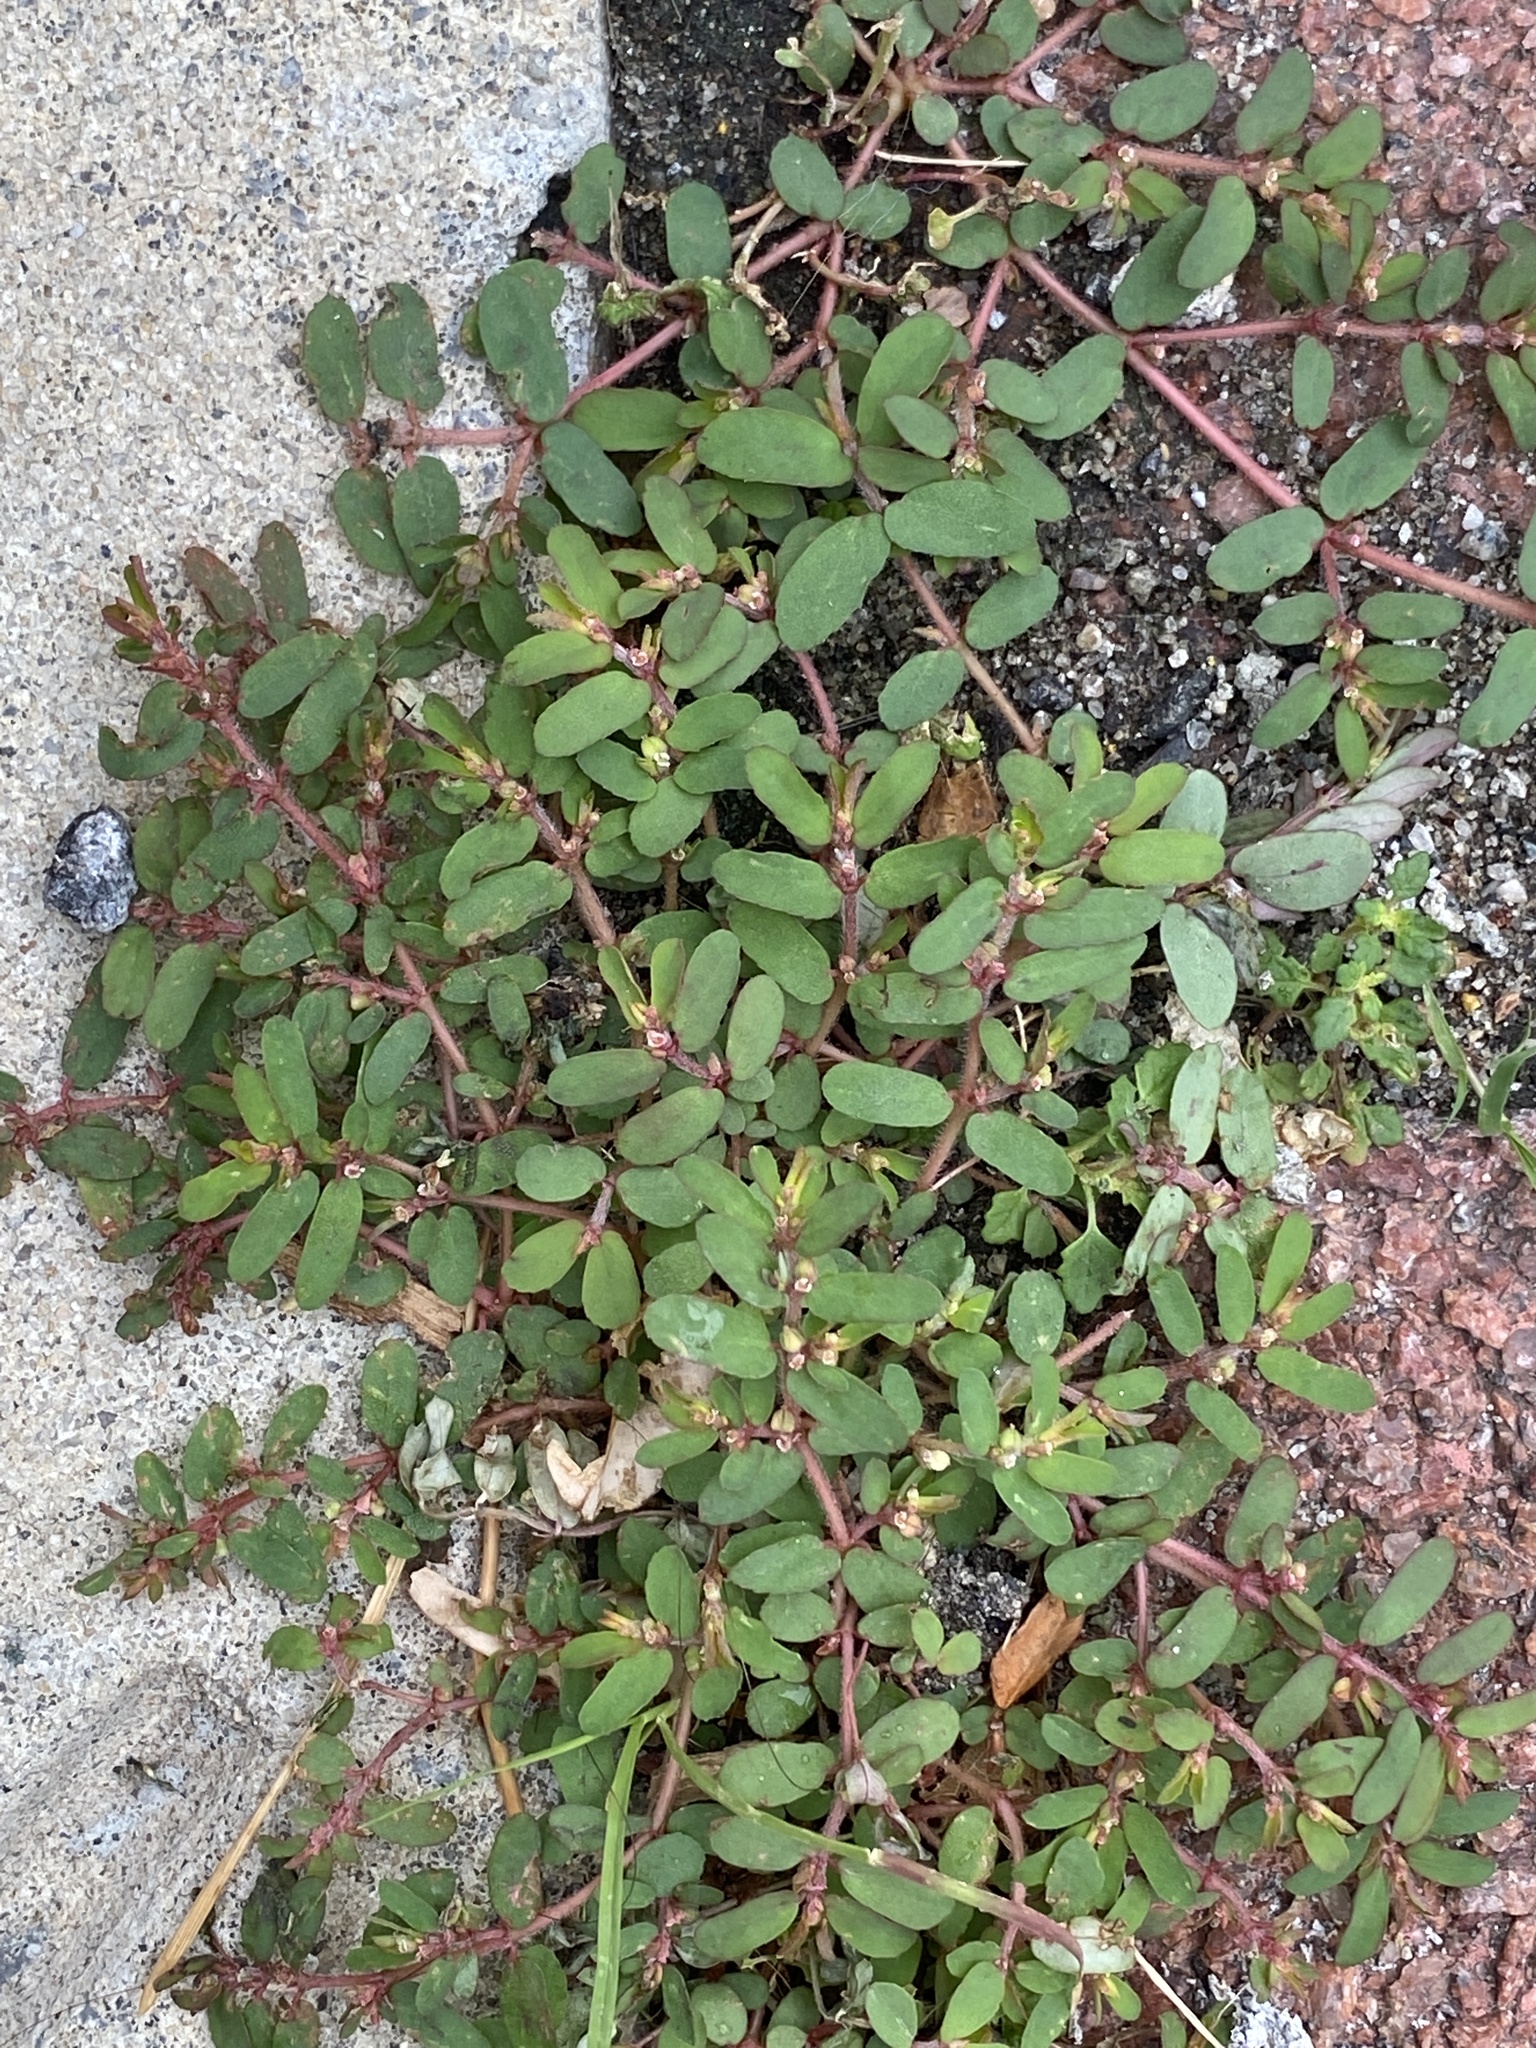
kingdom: Plantae
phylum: Tracheophyta
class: Magnoliopsida
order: Malpighiales
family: Euphorbiaceae
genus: Euphorbia
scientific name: Euphorbia maculata
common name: Spotted spurge
